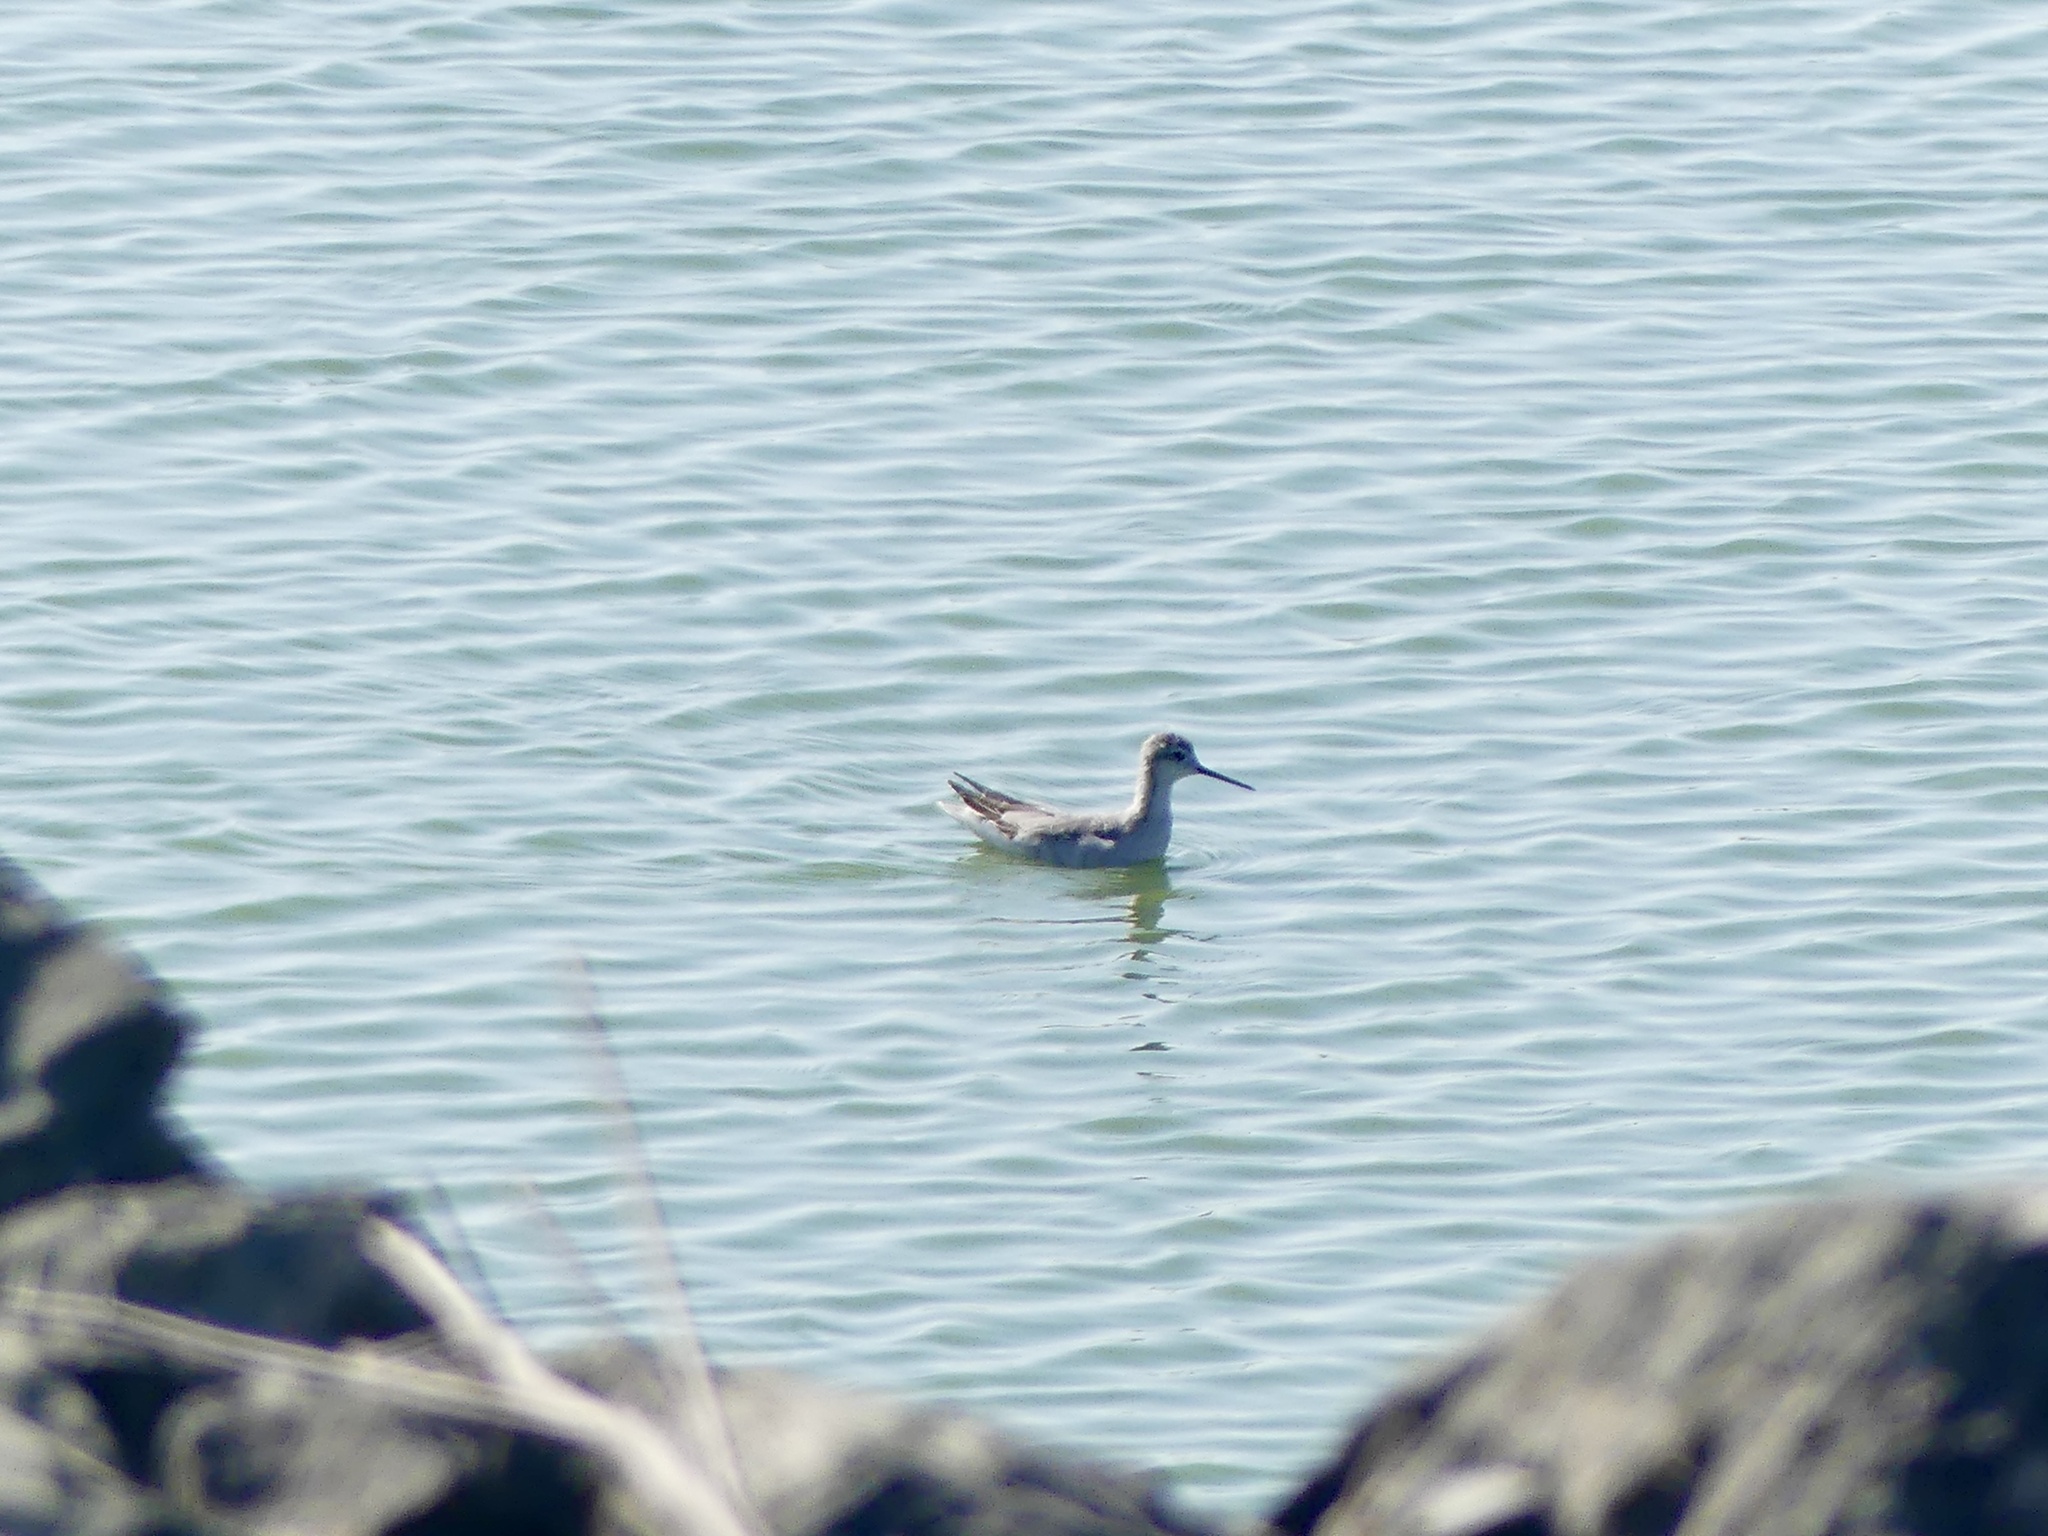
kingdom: Animalia
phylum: Chordata
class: Aves
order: Charadriiformes
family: Scolopacidae
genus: Phalaropus
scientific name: Phalaropus lobatus
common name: Red-necked phalarope
